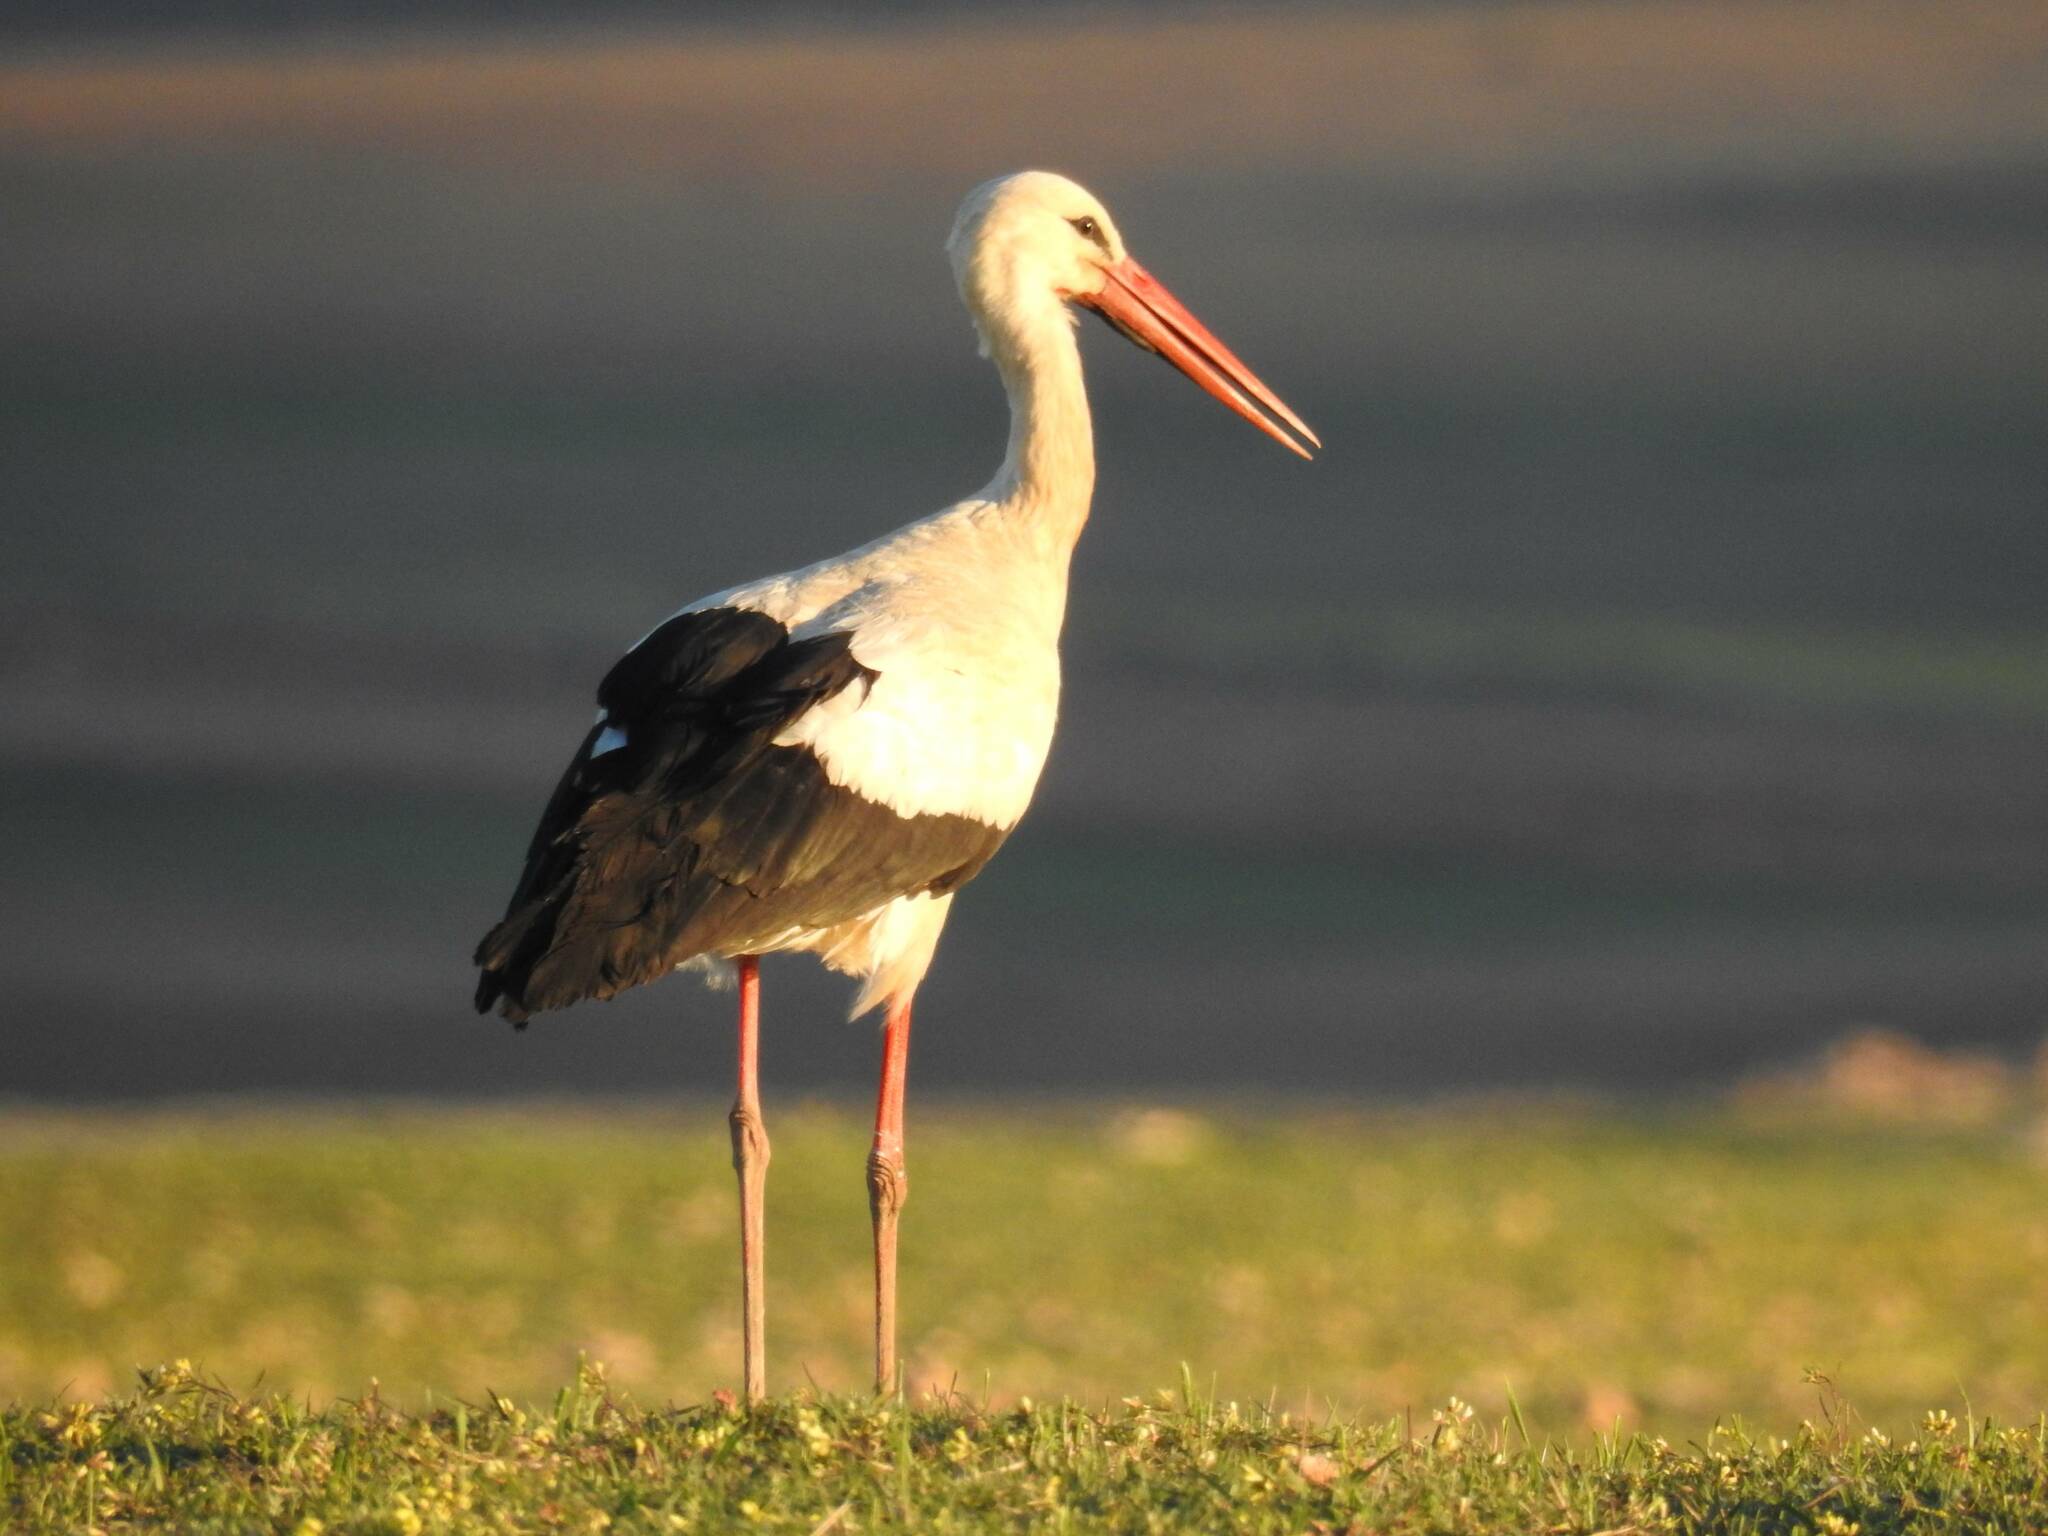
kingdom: Animalia
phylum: Chordata
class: Aves
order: Ciconiiformes
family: Ciconiidae
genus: Ciconia
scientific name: Ciconia ciconia
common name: White stork
